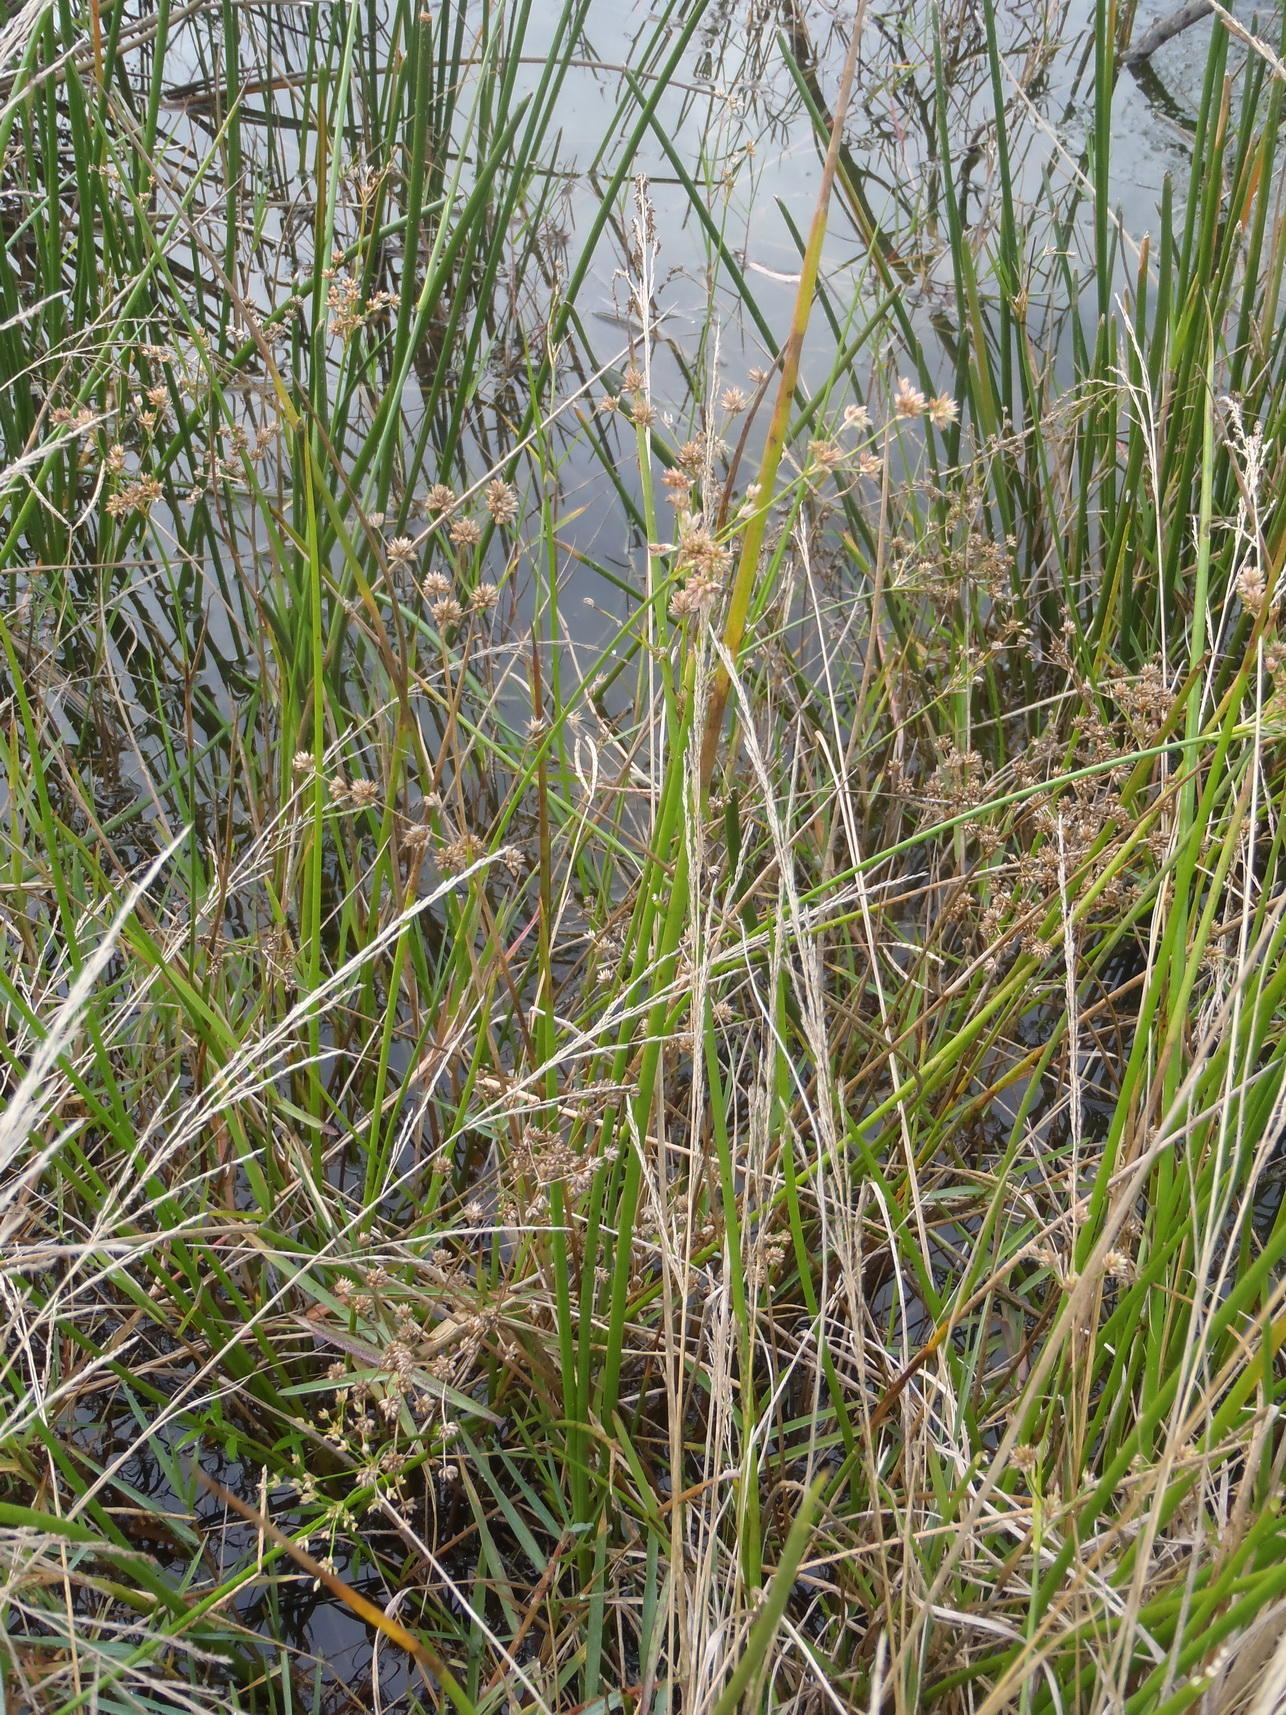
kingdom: Plantae
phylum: Tracheophyta
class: Liliopsida
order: Poales
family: Juncaceae
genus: Juncus
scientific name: Juncus oxycarpus
